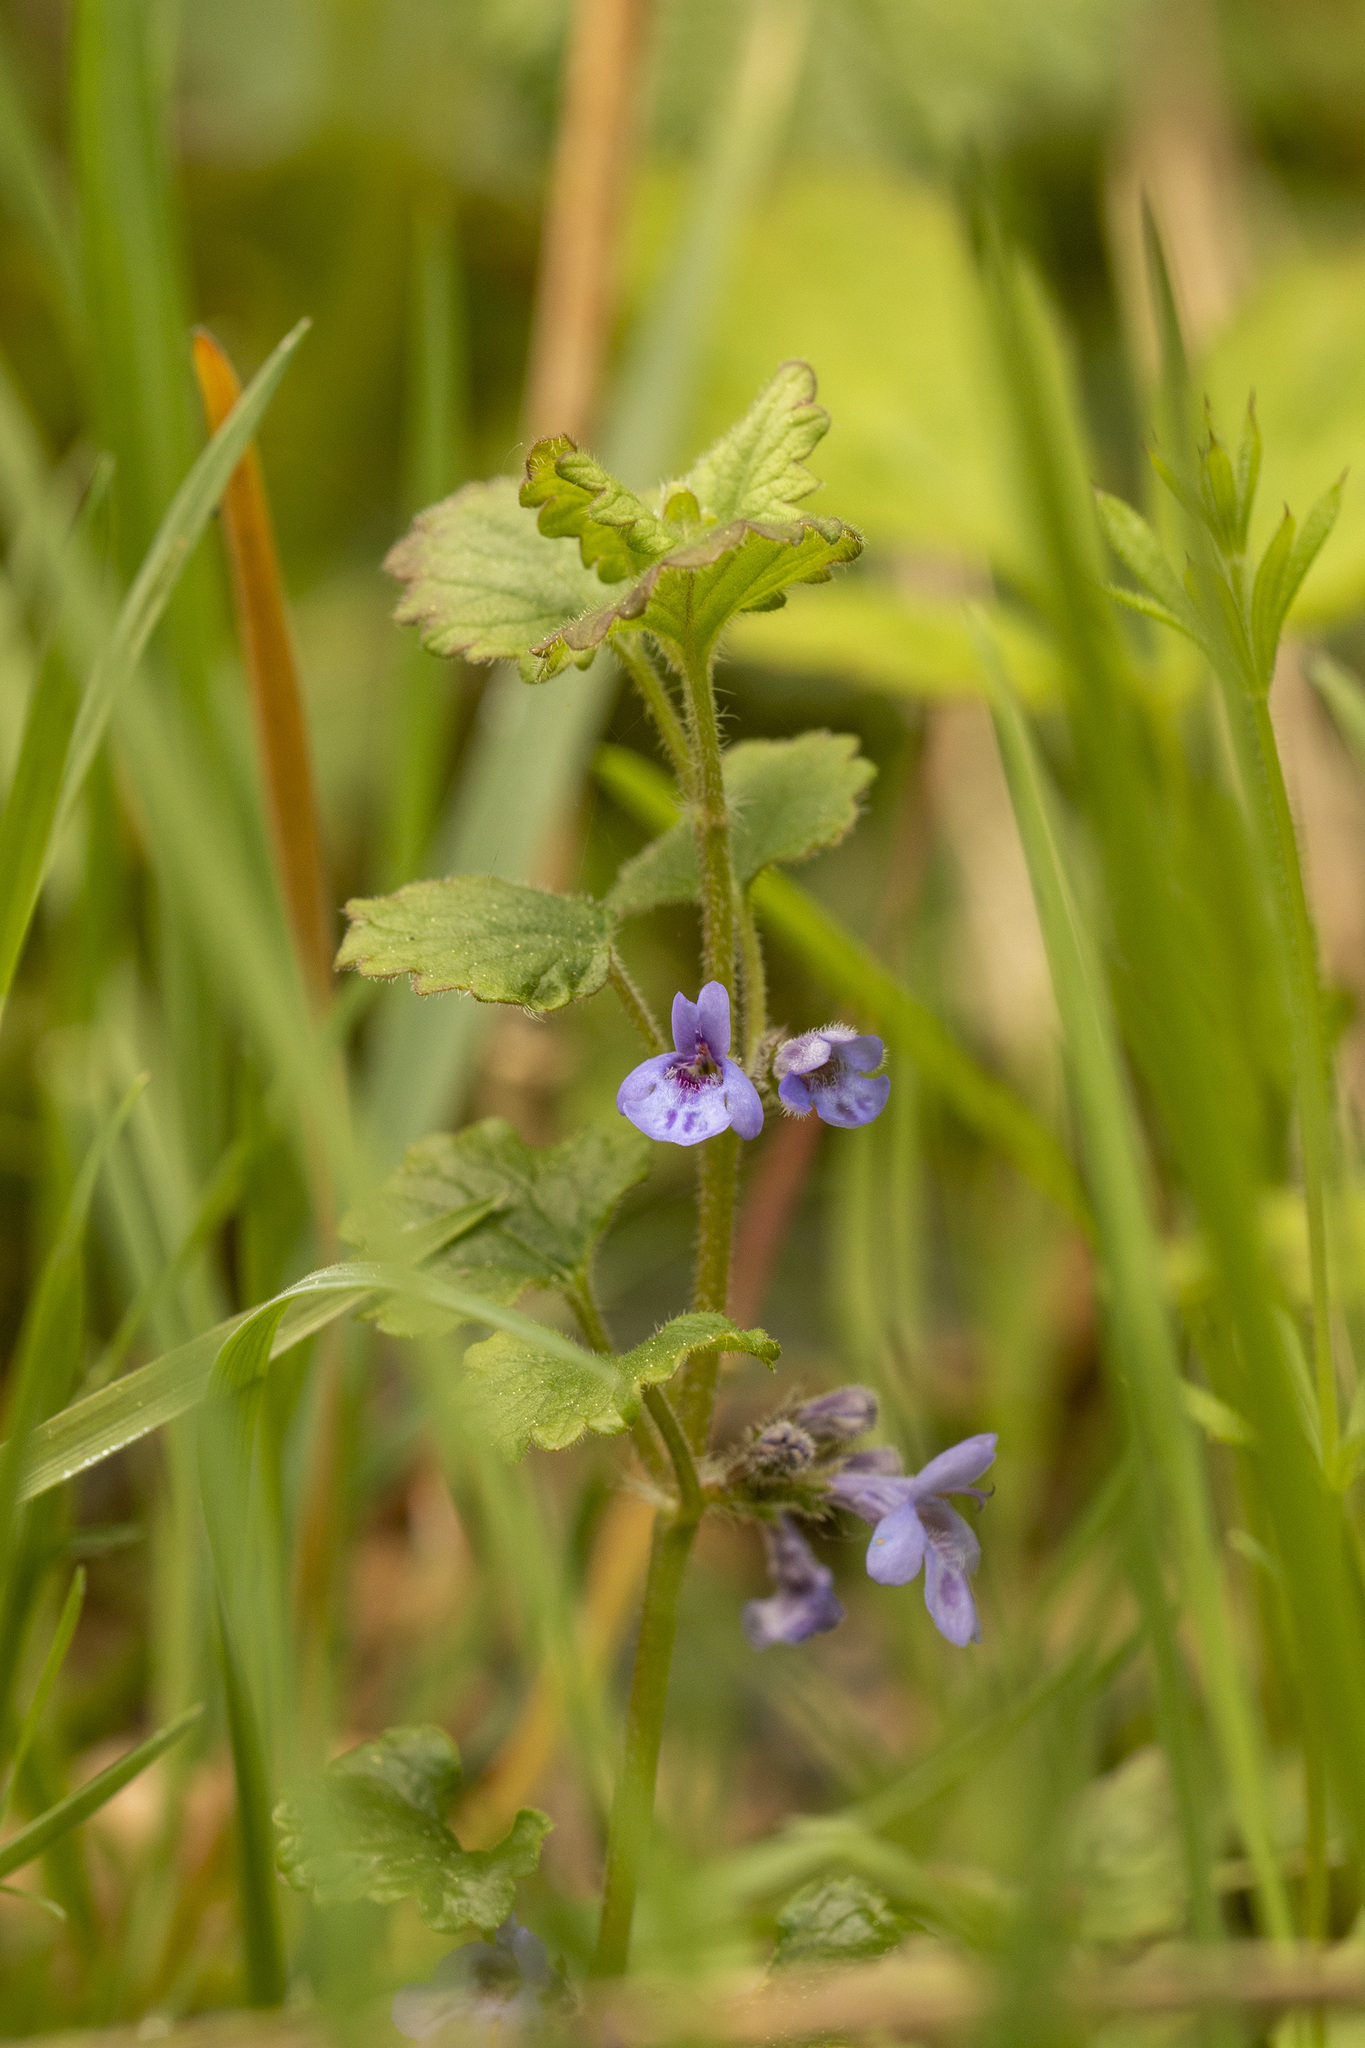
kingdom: Plantae
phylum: Tracheophyta
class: Magnoliopsida
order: Lamiales
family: Lamiaceae
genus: Glechoma
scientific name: Glechoma hederacea
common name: Ground ivy
